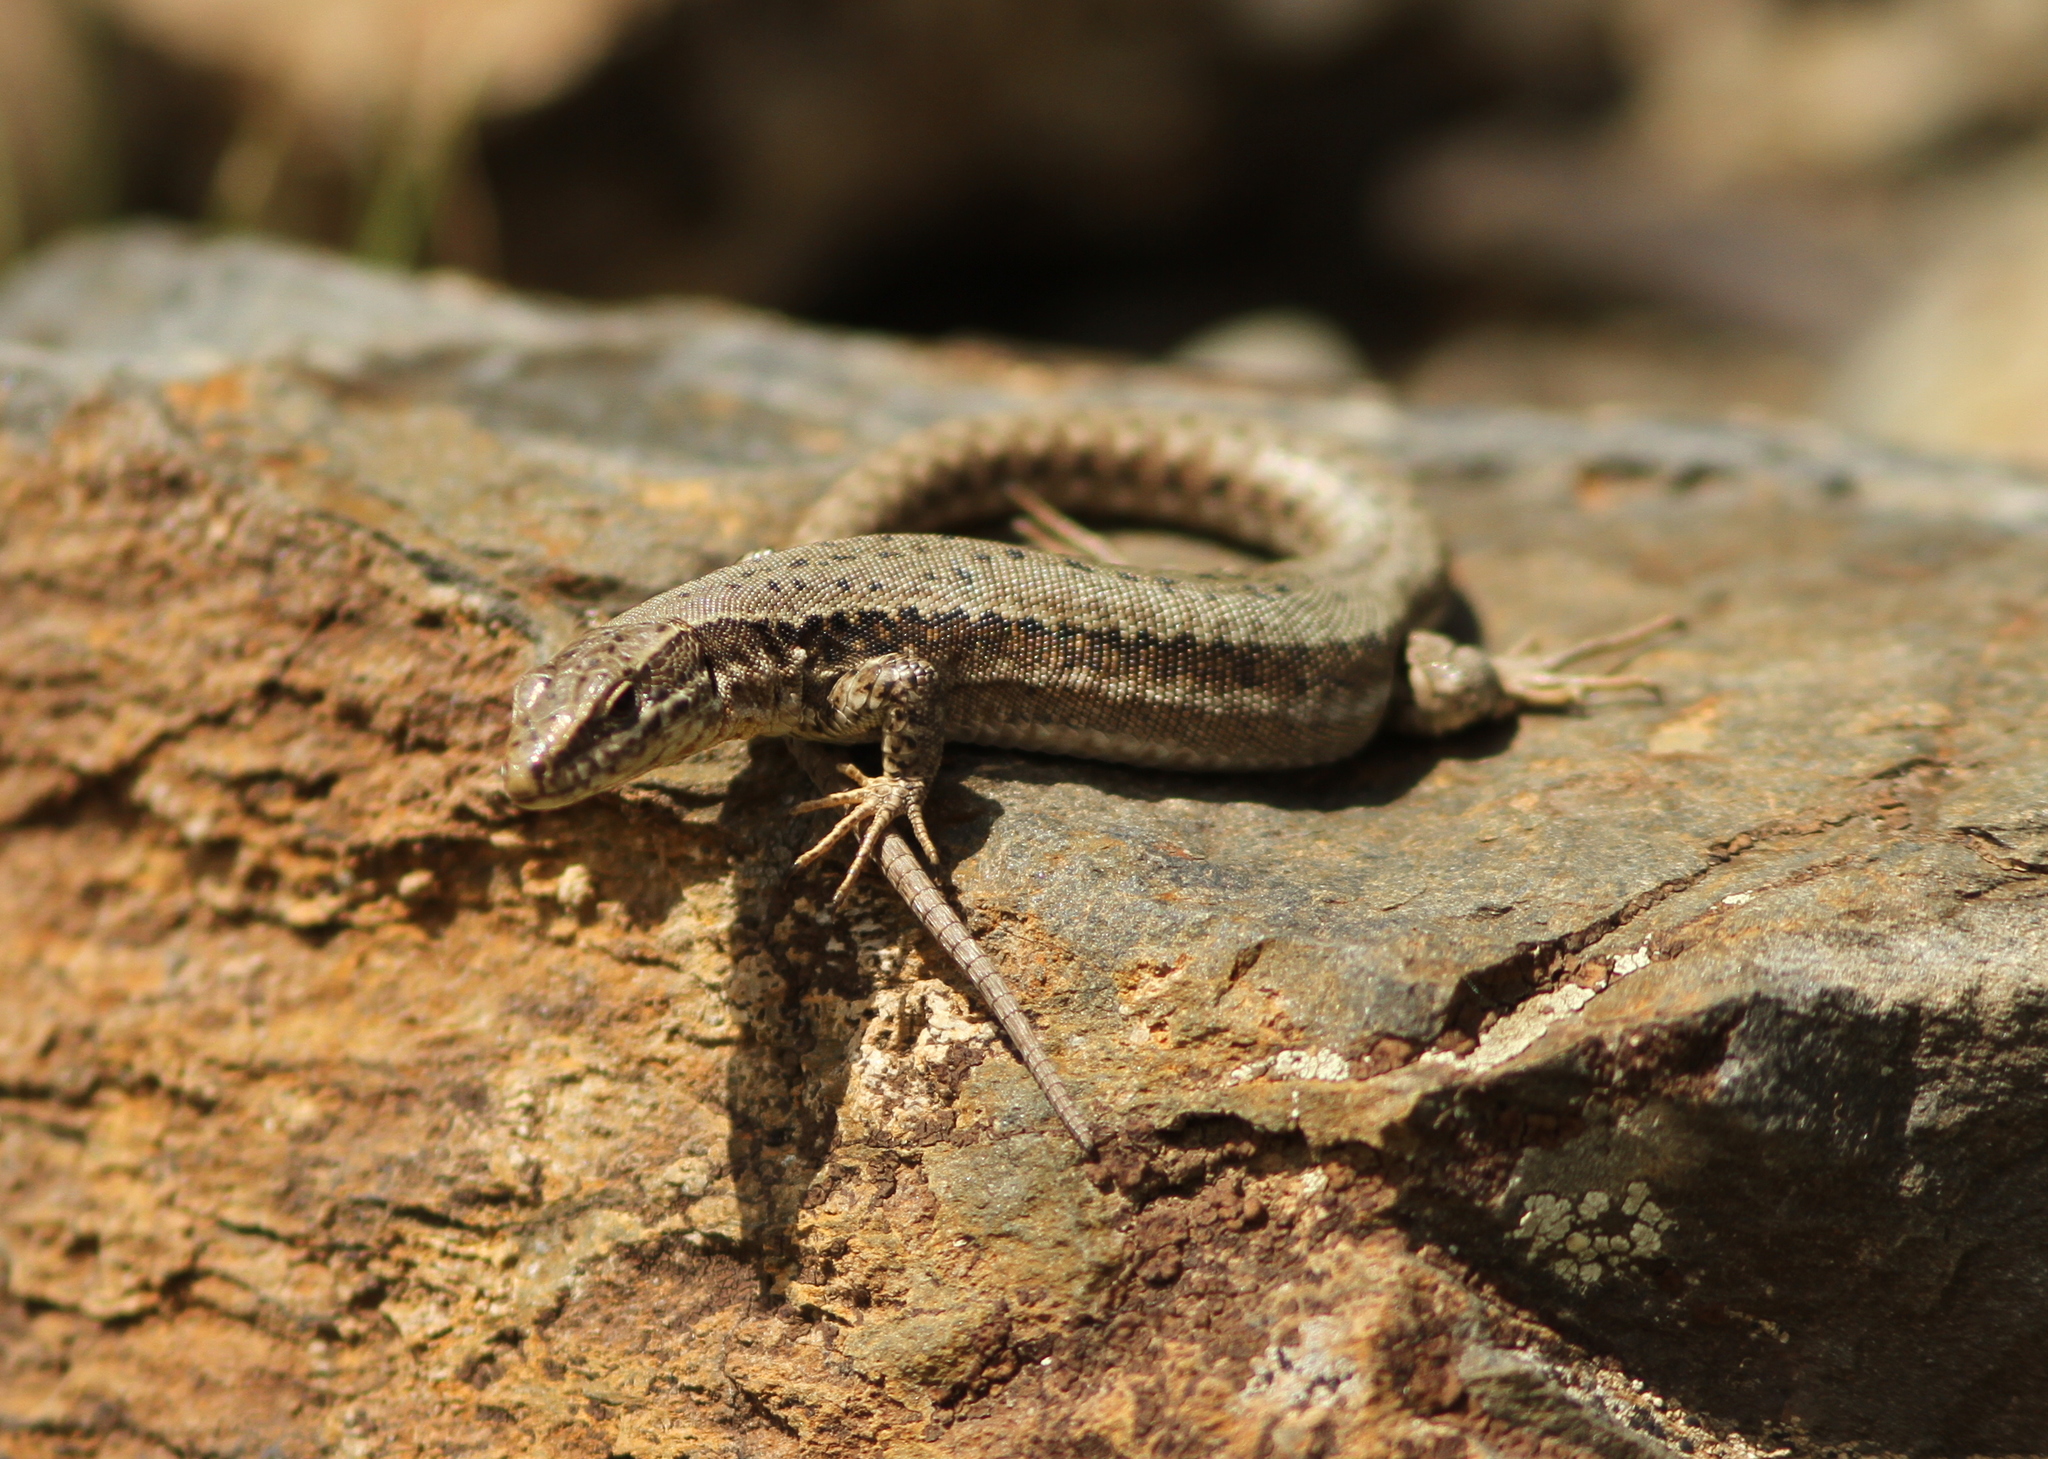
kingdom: Animalia
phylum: Chordata
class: Squamata
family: Lacertidae
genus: Podarcis
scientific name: Podarcis muralis
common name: Common wall lizard
